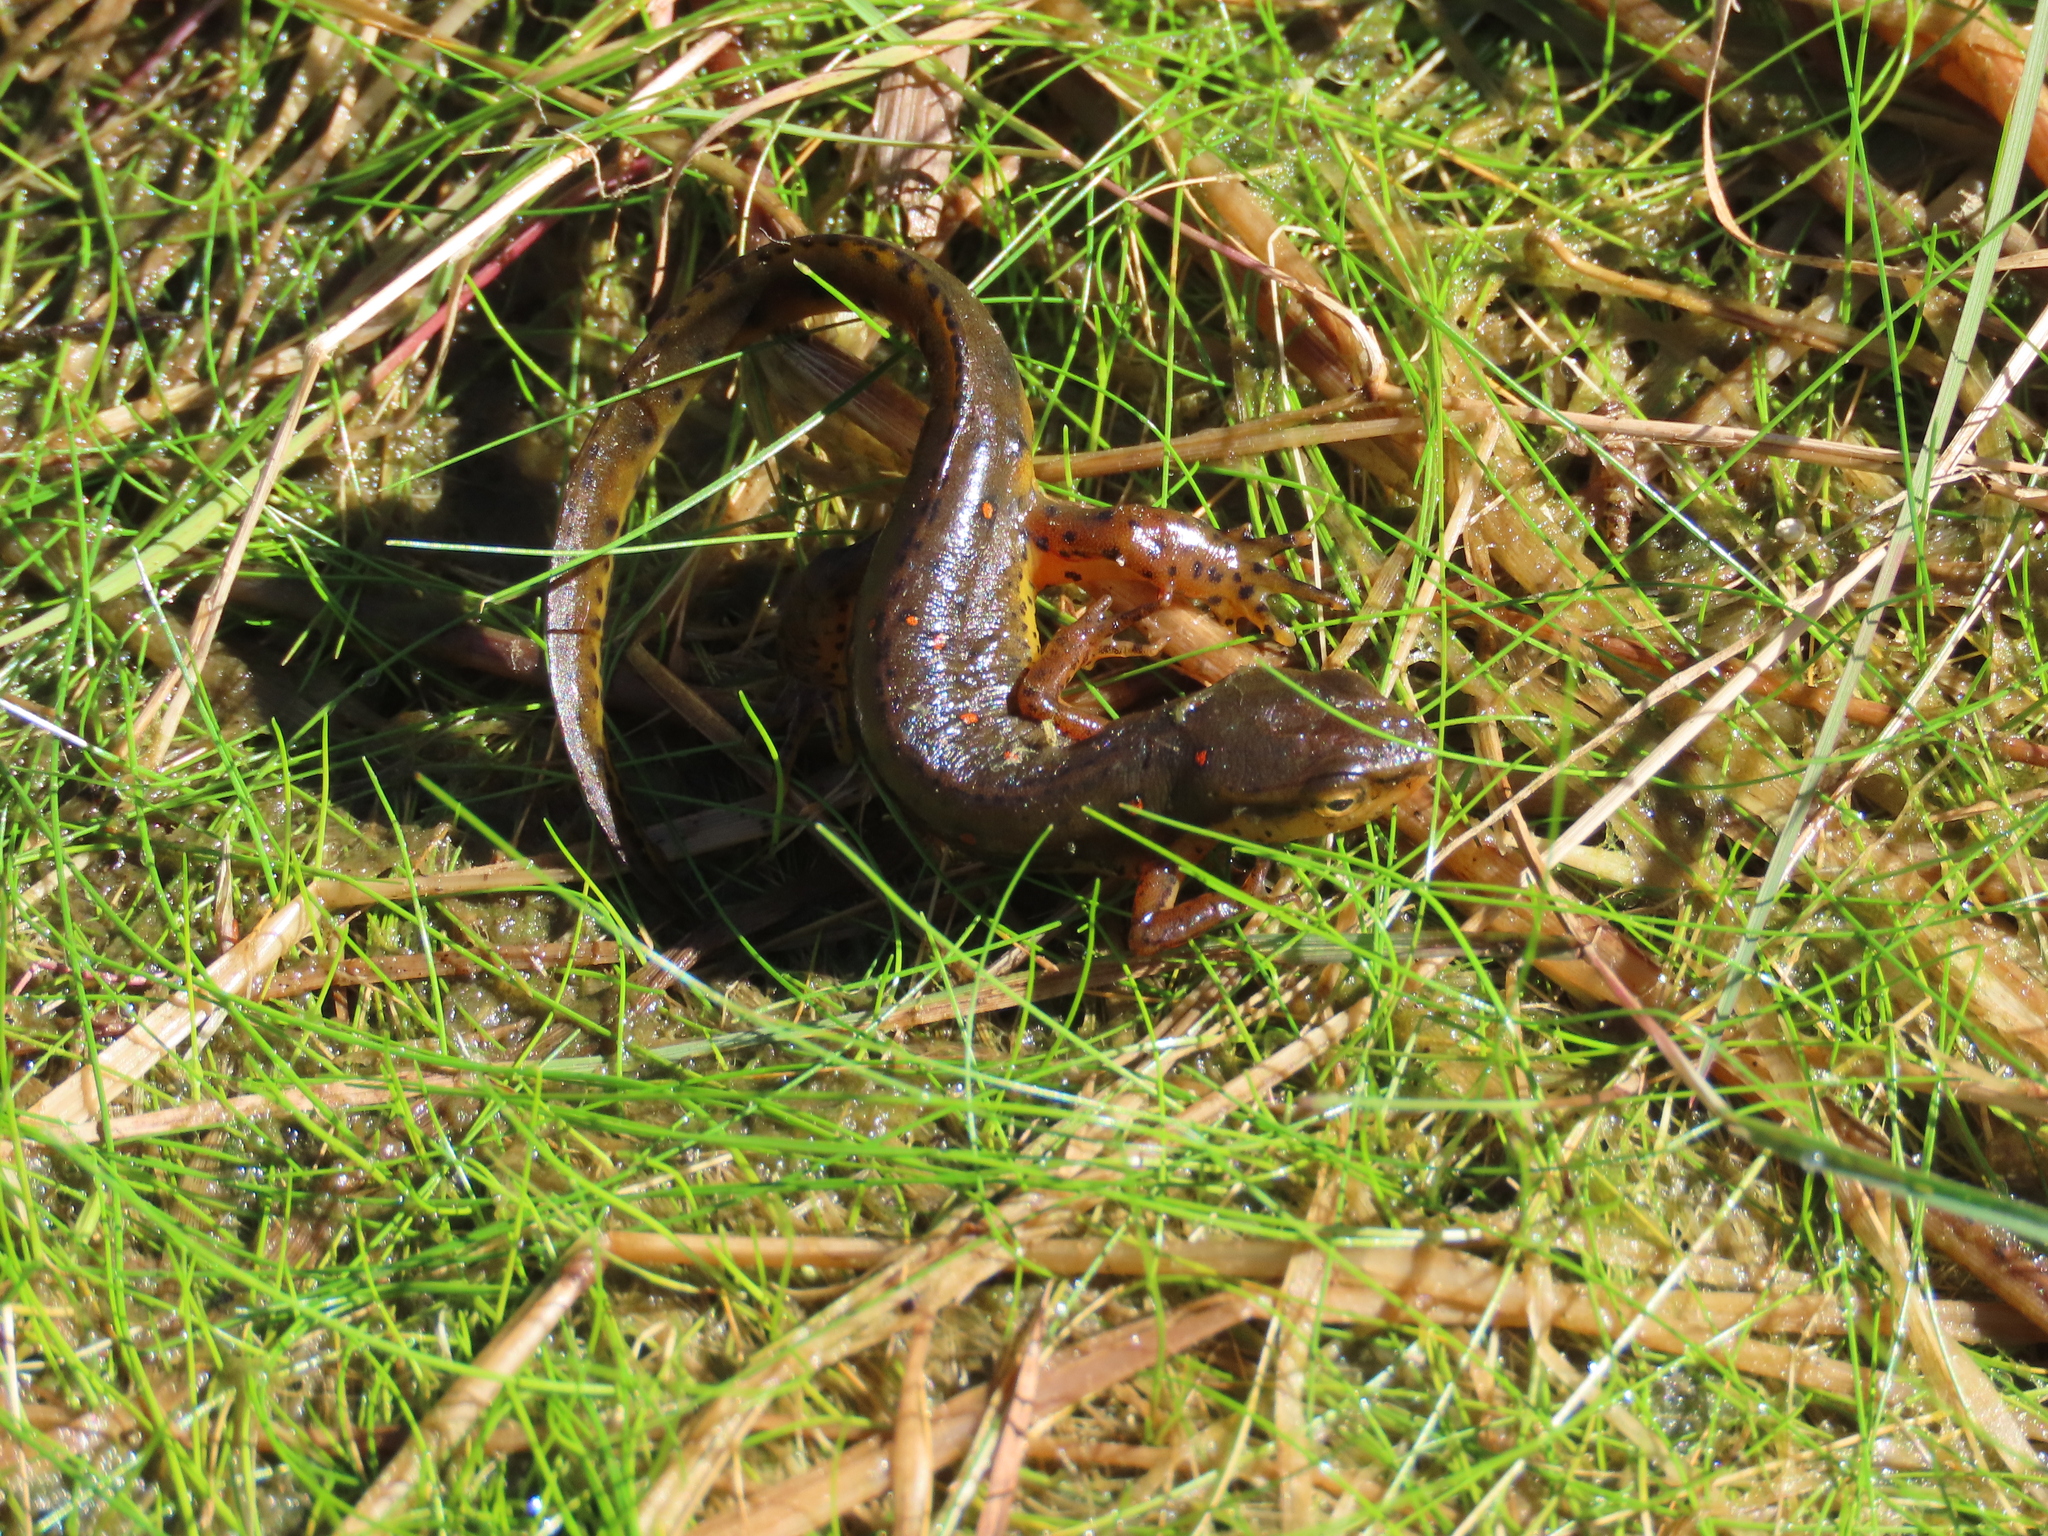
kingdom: Animalia
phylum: Chordata
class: Amphibia
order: Caudata
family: Salamandridae
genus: Notophthalmus
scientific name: Notophthalmus viridescens
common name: Eastern newt
